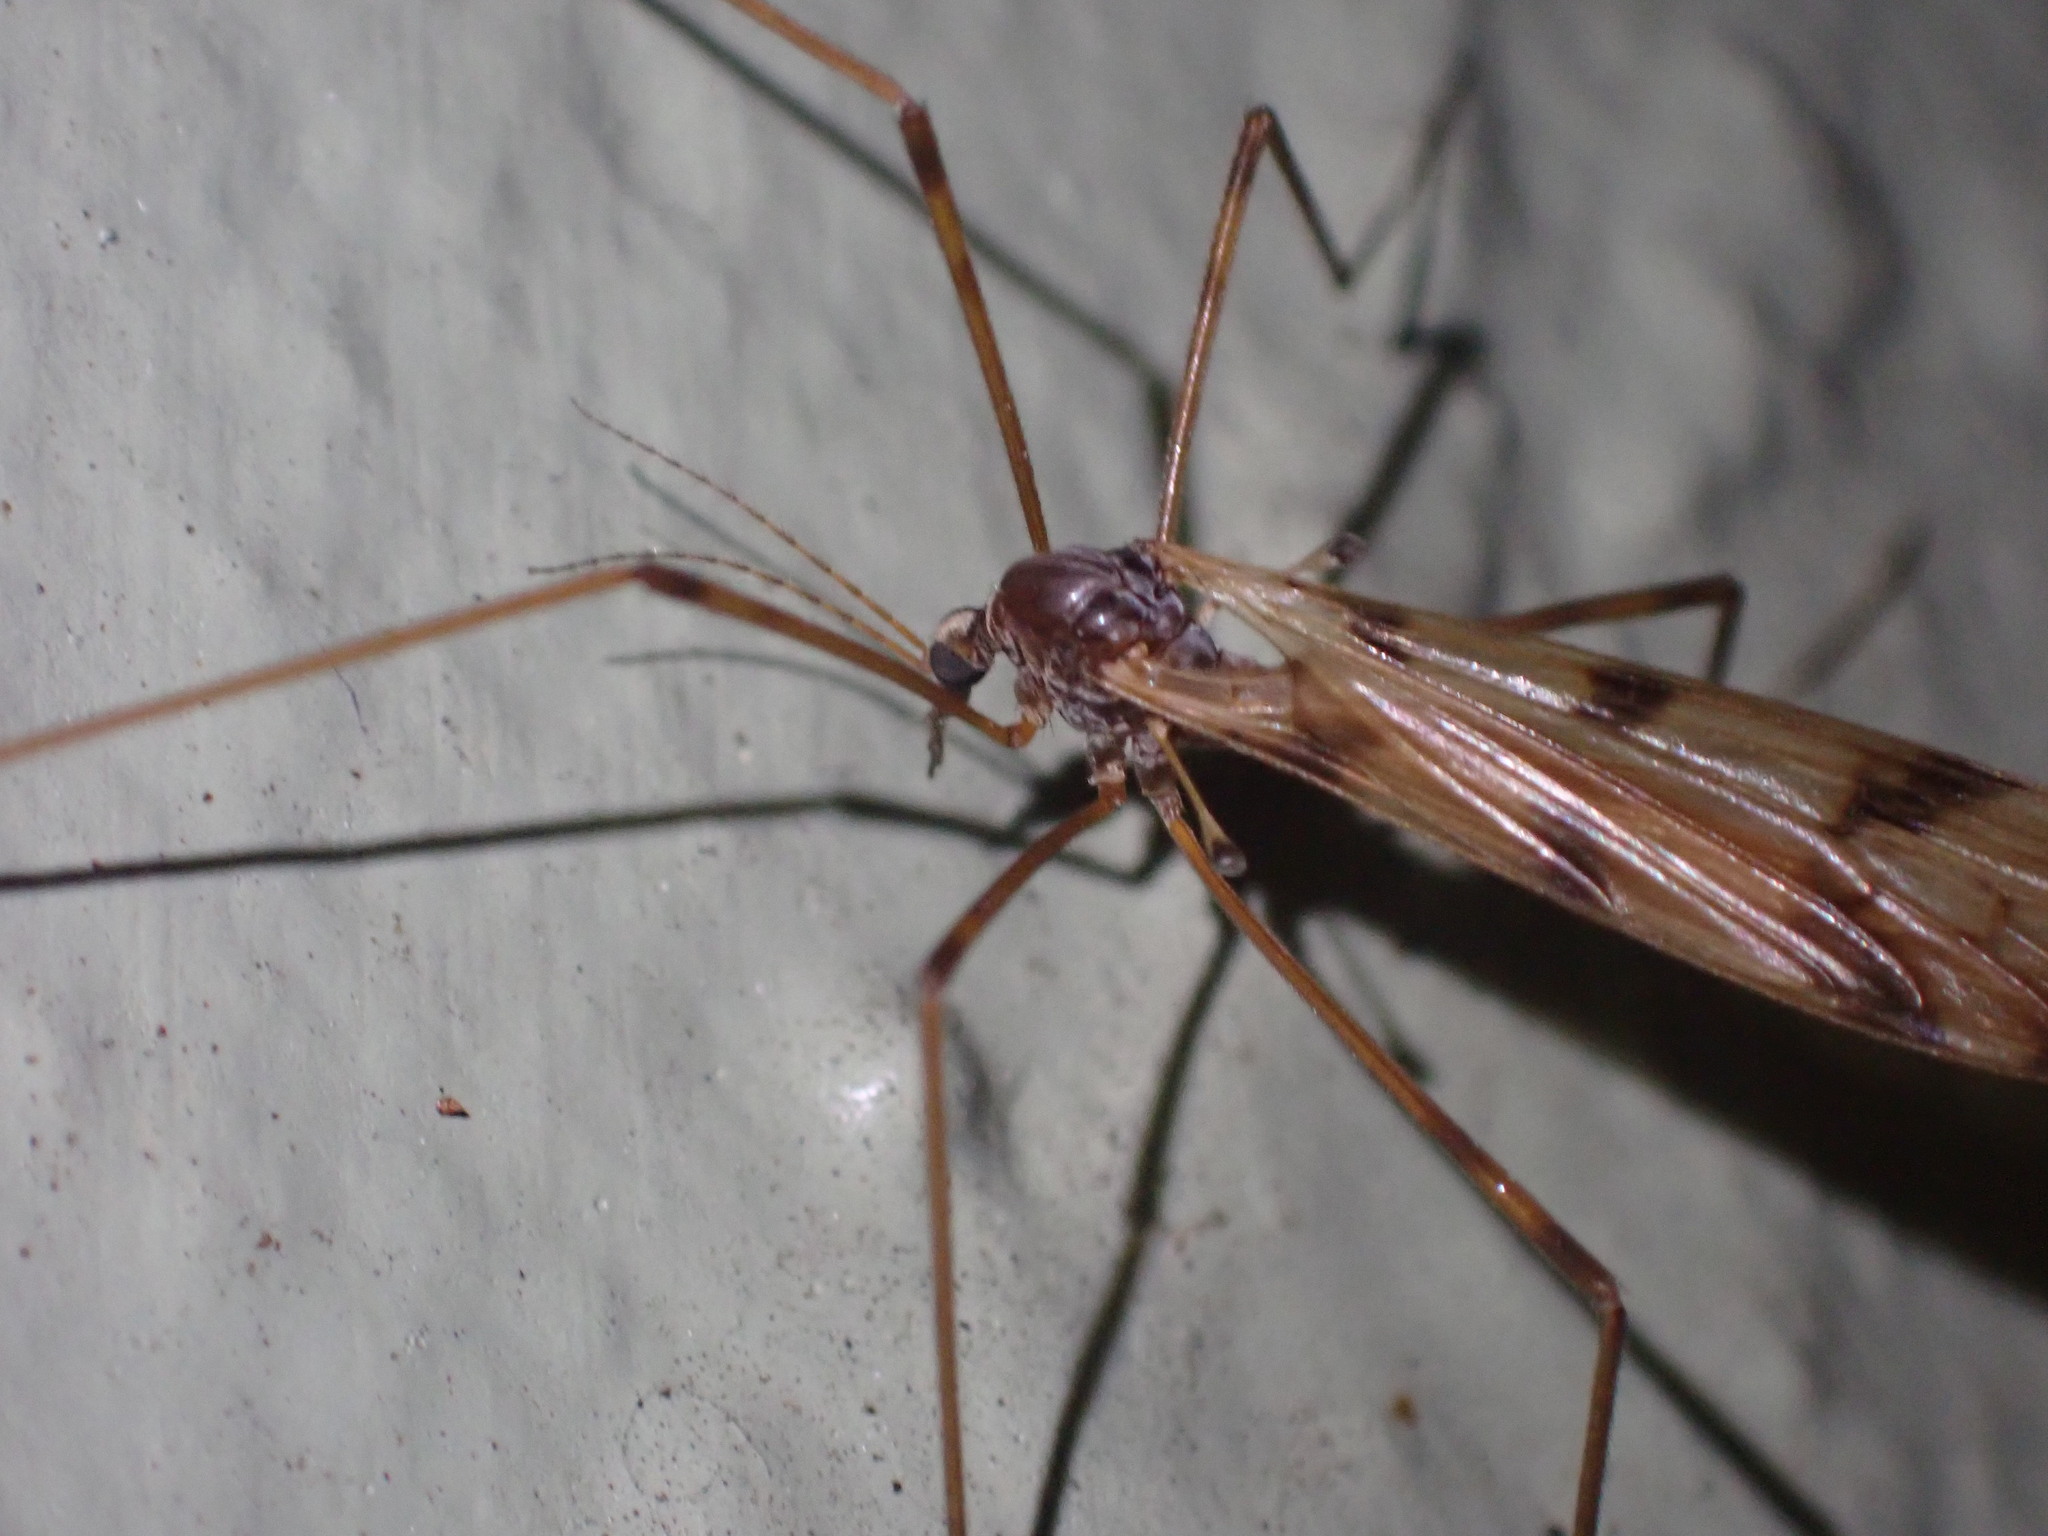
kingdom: Animalia
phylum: Arthropoda
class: Insecta
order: Diptera
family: Limoniidae
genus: Austrolimnophila
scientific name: Austrolimnophila atripes
